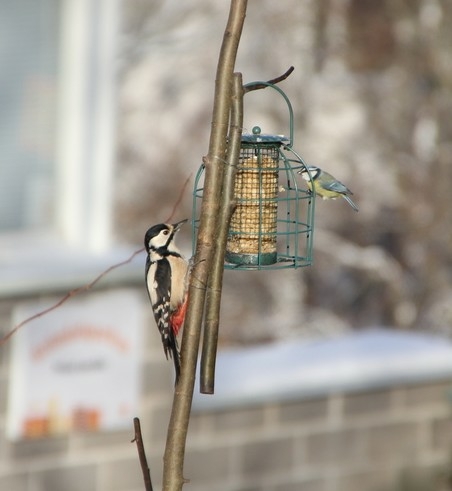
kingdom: Animalia
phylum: Chordata
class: Aves
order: Passeriformes
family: Paridae
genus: Cyanistes
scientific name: Cyanistes caeruleus
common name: Eurasian blue tit
